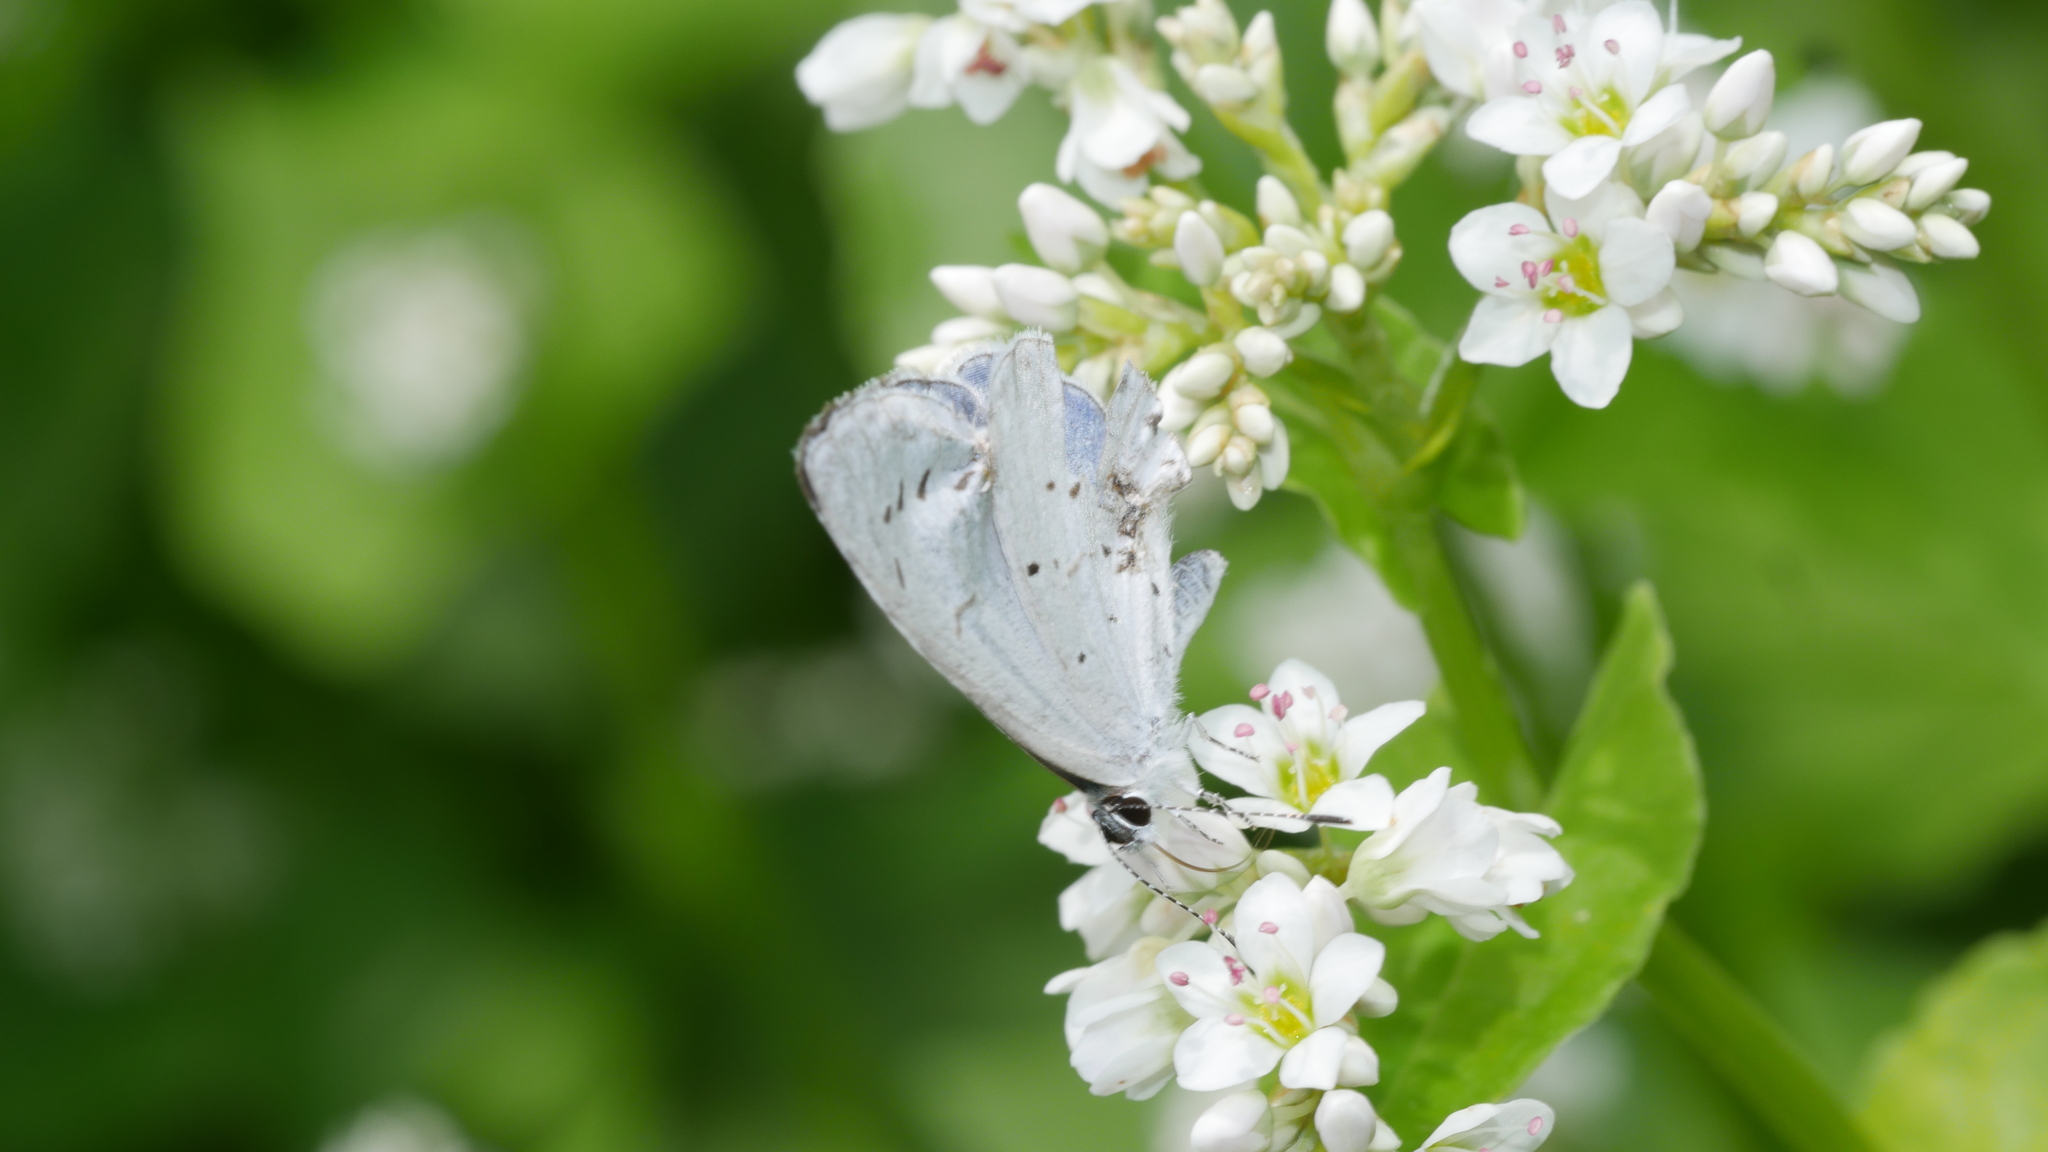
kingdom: Animalia
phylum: Arthropoda
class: Insecta
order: Lepidoptera
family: Lycaenidae
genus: Cyaniris
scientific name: Cyaniris neglecta
